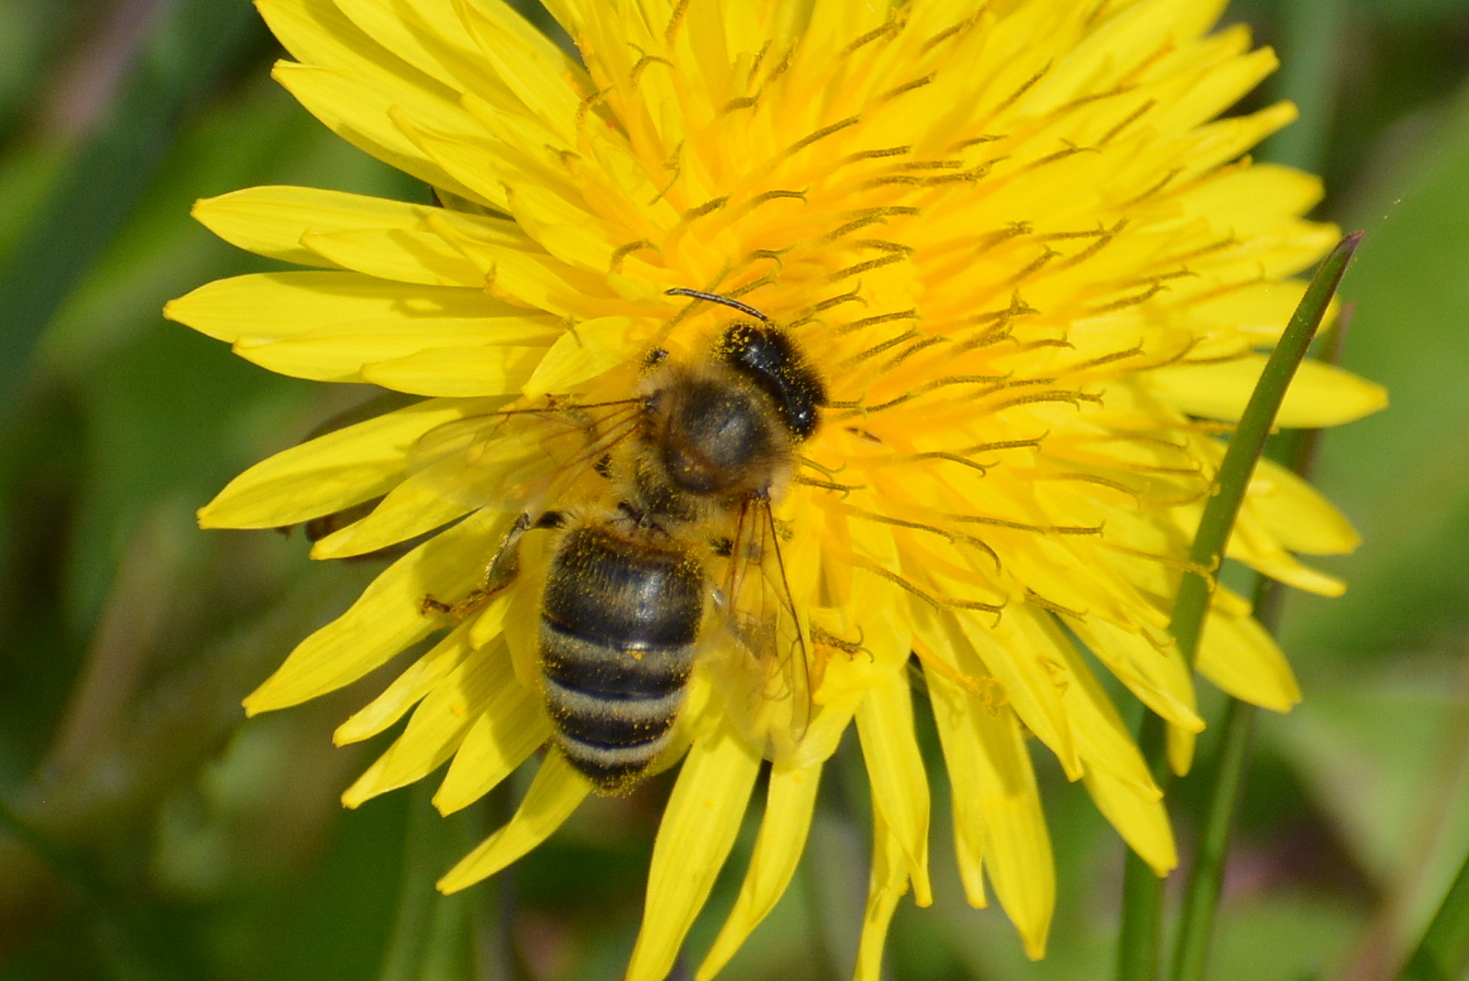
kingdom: Animalia
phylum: Arthropoda
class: Insecta
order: Hymenoptera
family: Apidae
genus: Apis
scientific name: Apis mellifera
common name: Honey bee
